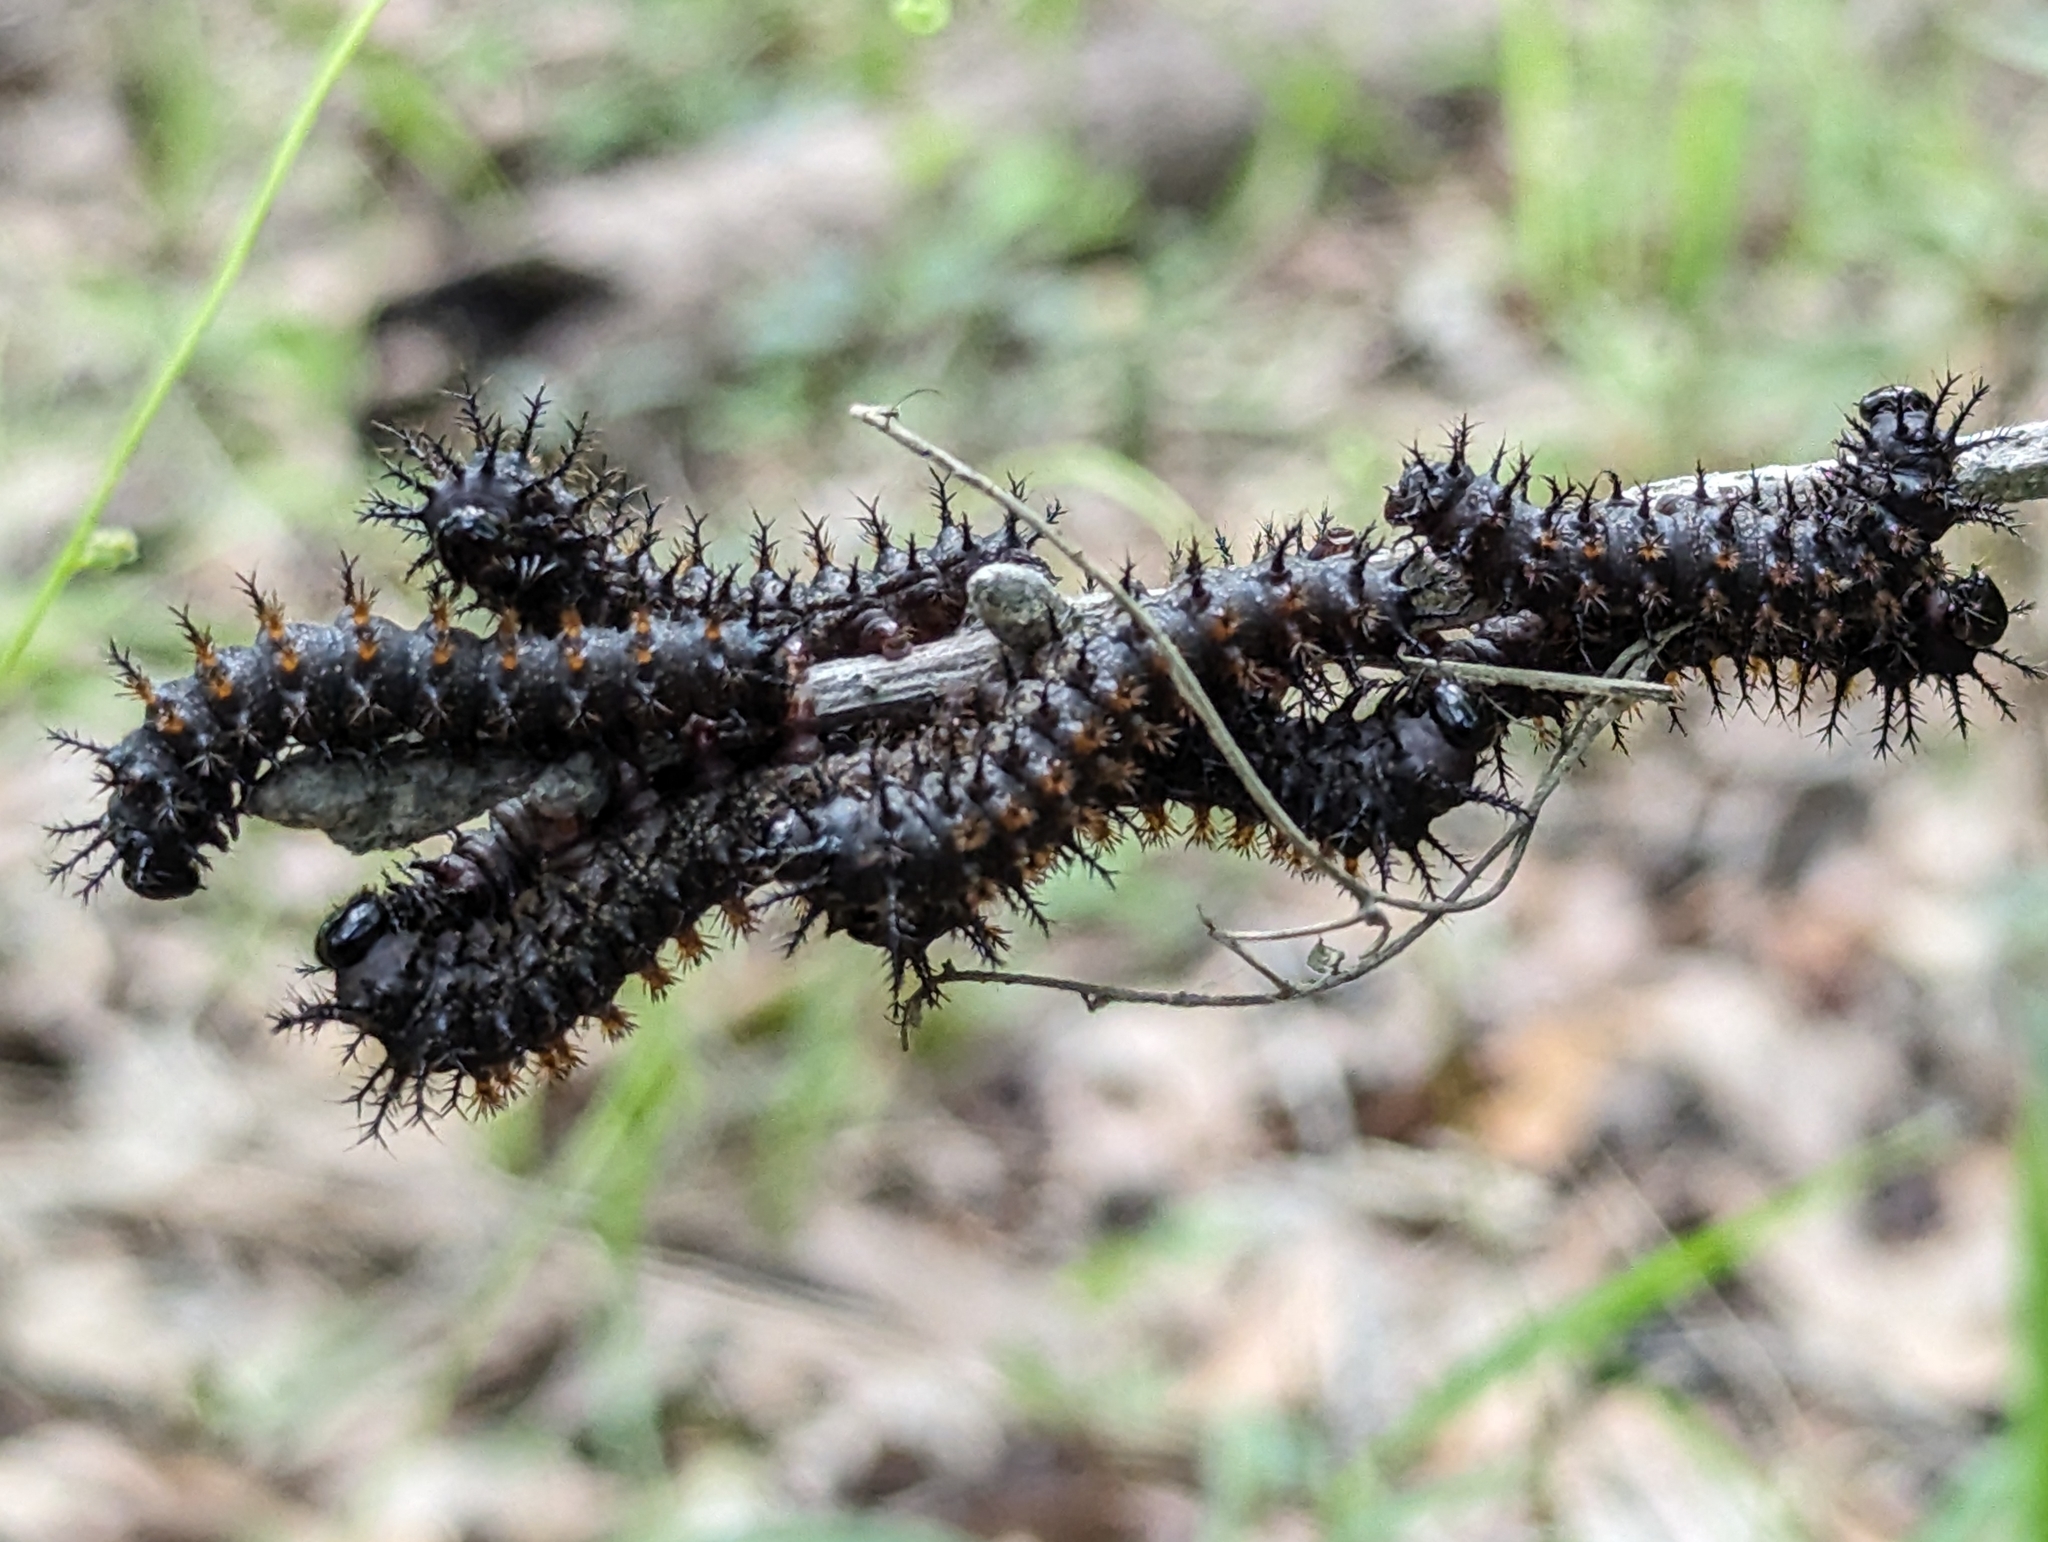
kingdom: Animalia
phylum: Arthropoda
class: Insecta
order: Lepidoptera
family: Saturniidae
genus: Hemileuca
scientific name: Hemileuca maia
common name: Eastern buckmoth
